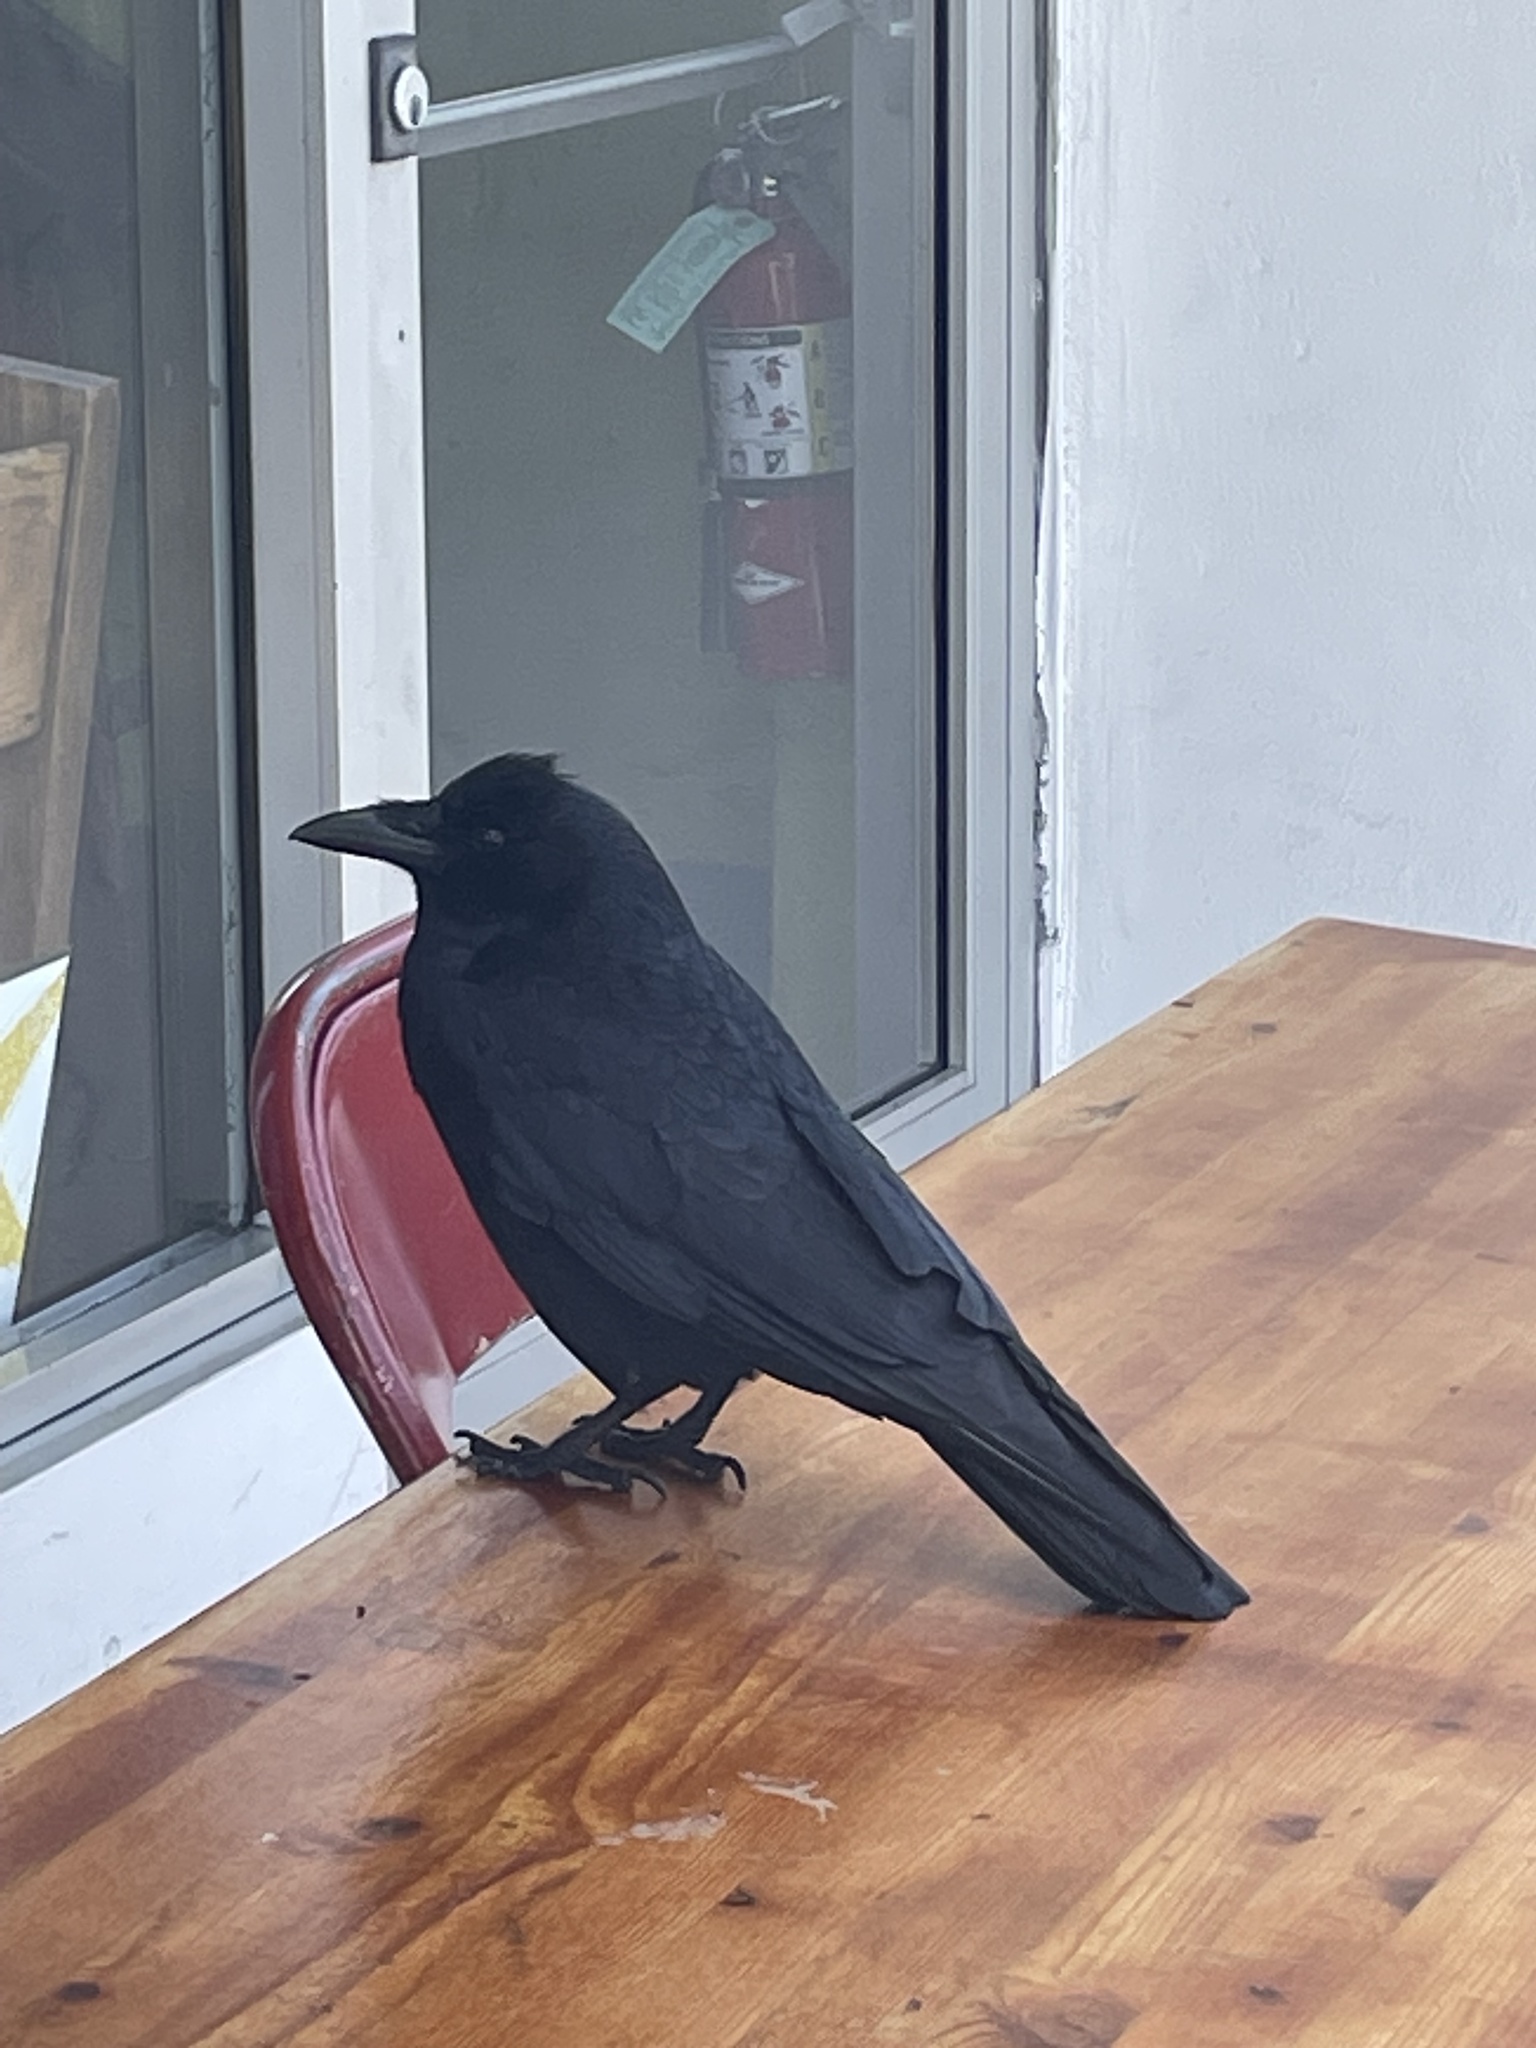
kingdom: Animalia
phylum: Chordata
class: Aves
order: Passeriformes
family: Corvidae
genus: Corvus
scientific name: Corvus brachyrhynchos
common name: American crow
